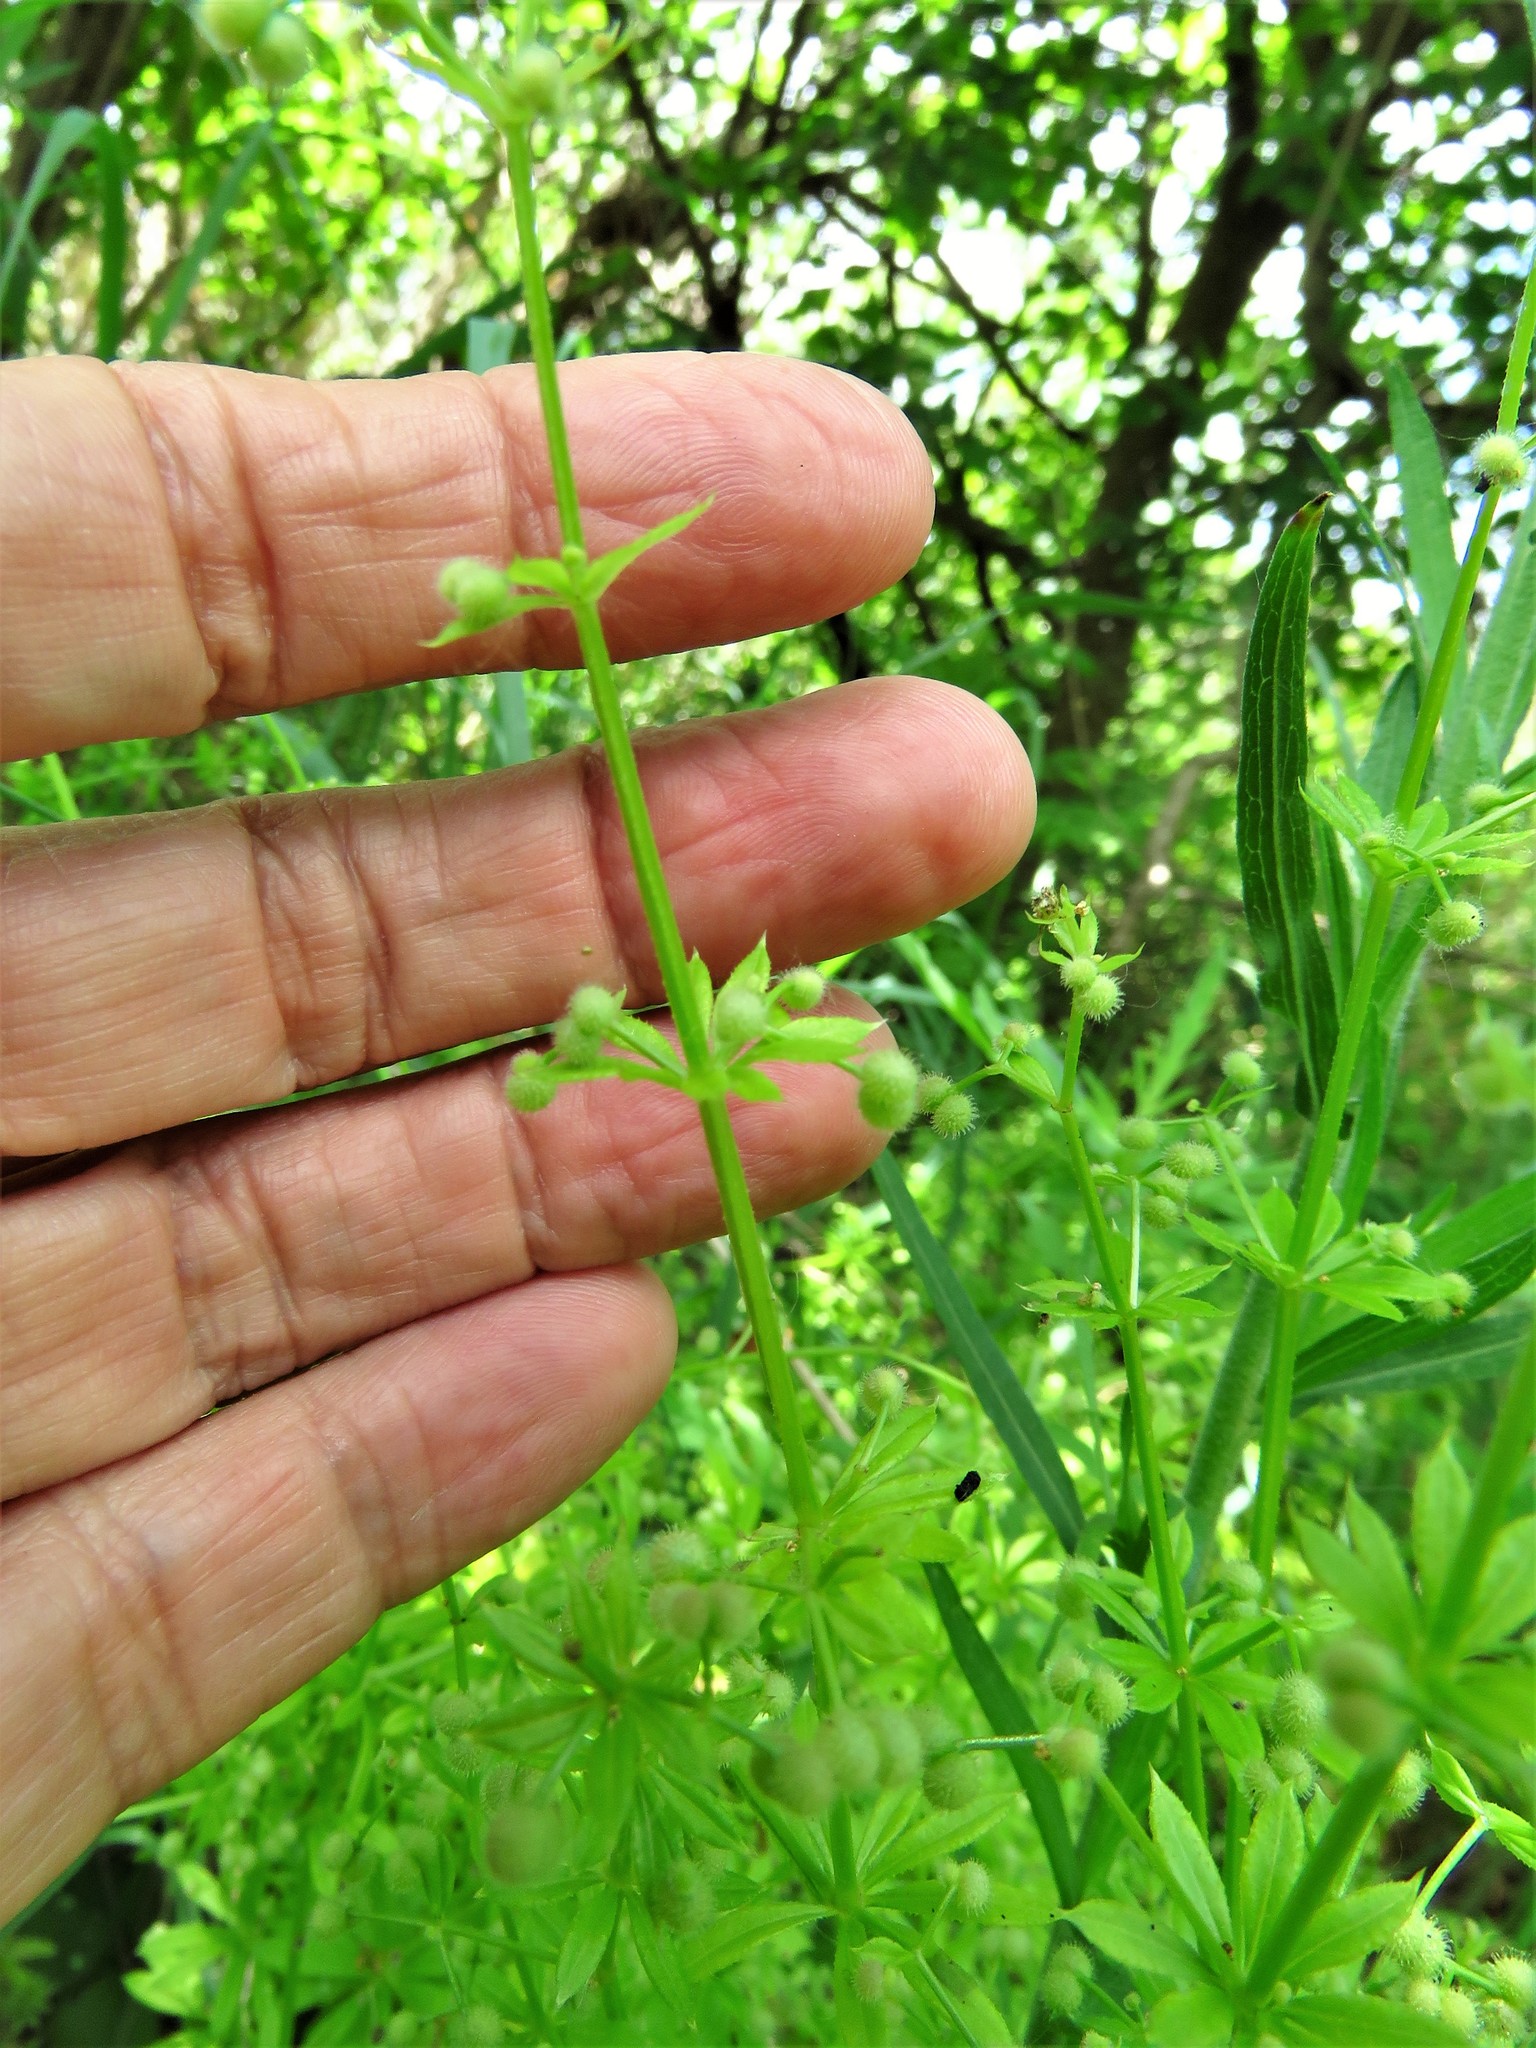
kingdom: Plantae
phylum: Tracheophyta
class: Magnoliopsida
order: Gentianales
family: Rubiaceae
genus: Galium
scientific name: Galium aparine
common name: Cleavers
